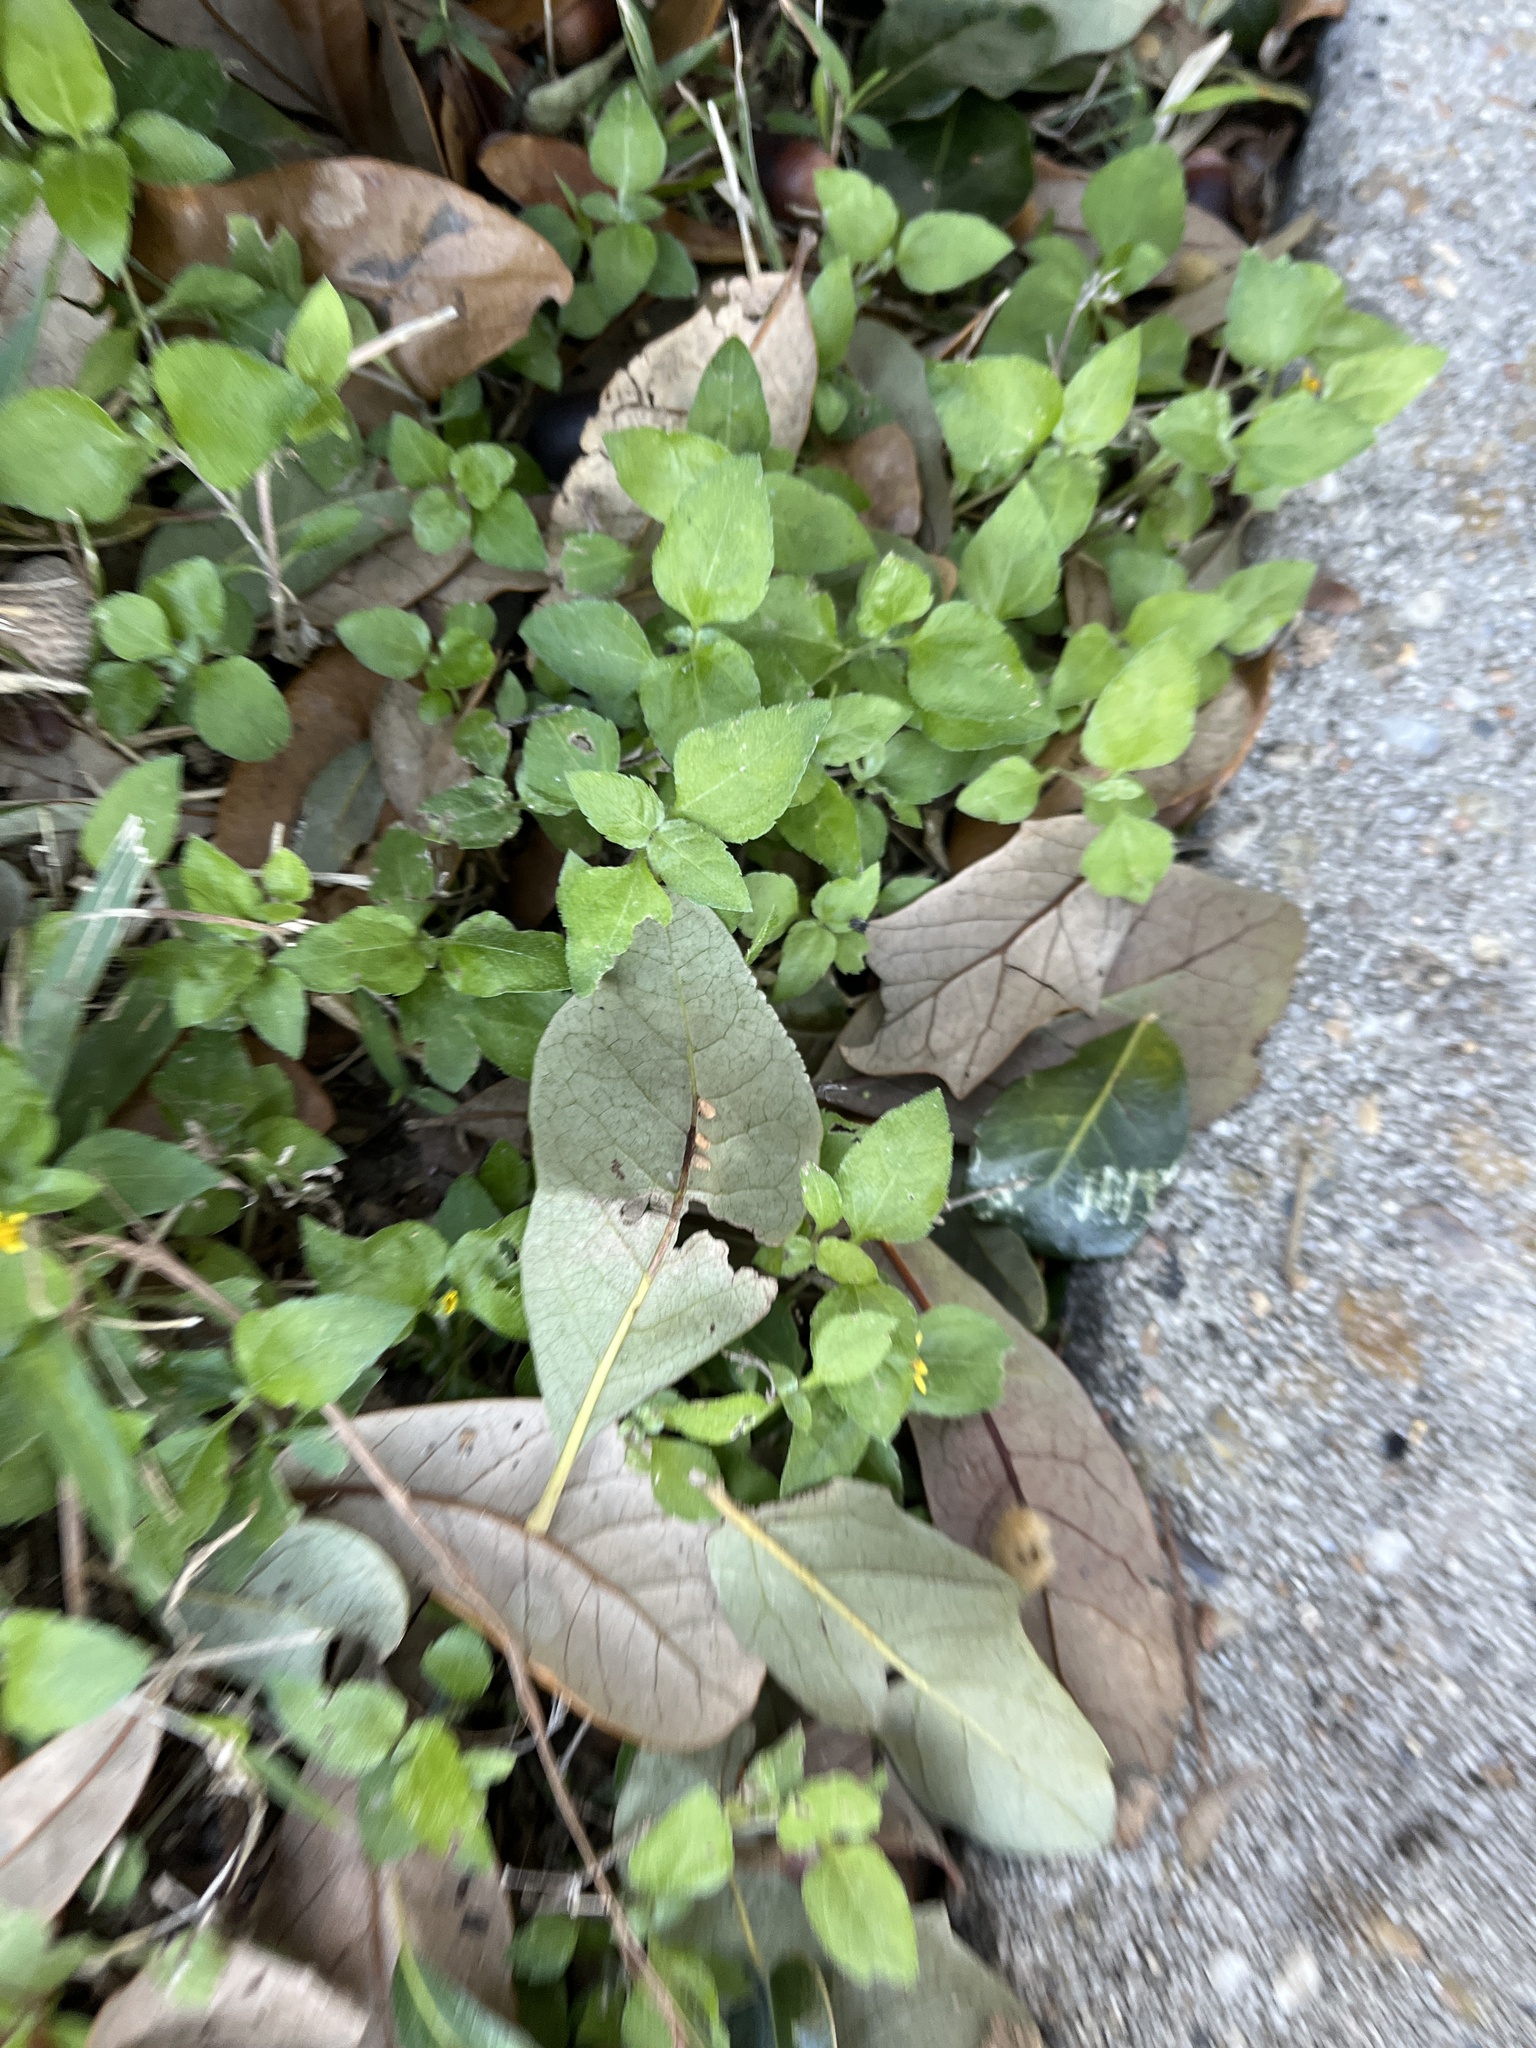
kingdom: Plantae
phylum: Tracheophyta
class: Magnoliopsida
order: Asterales
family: Asteraceae
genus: Calyptocarpus
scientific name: Calyptocarpus vialis
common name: Straggler daisy
